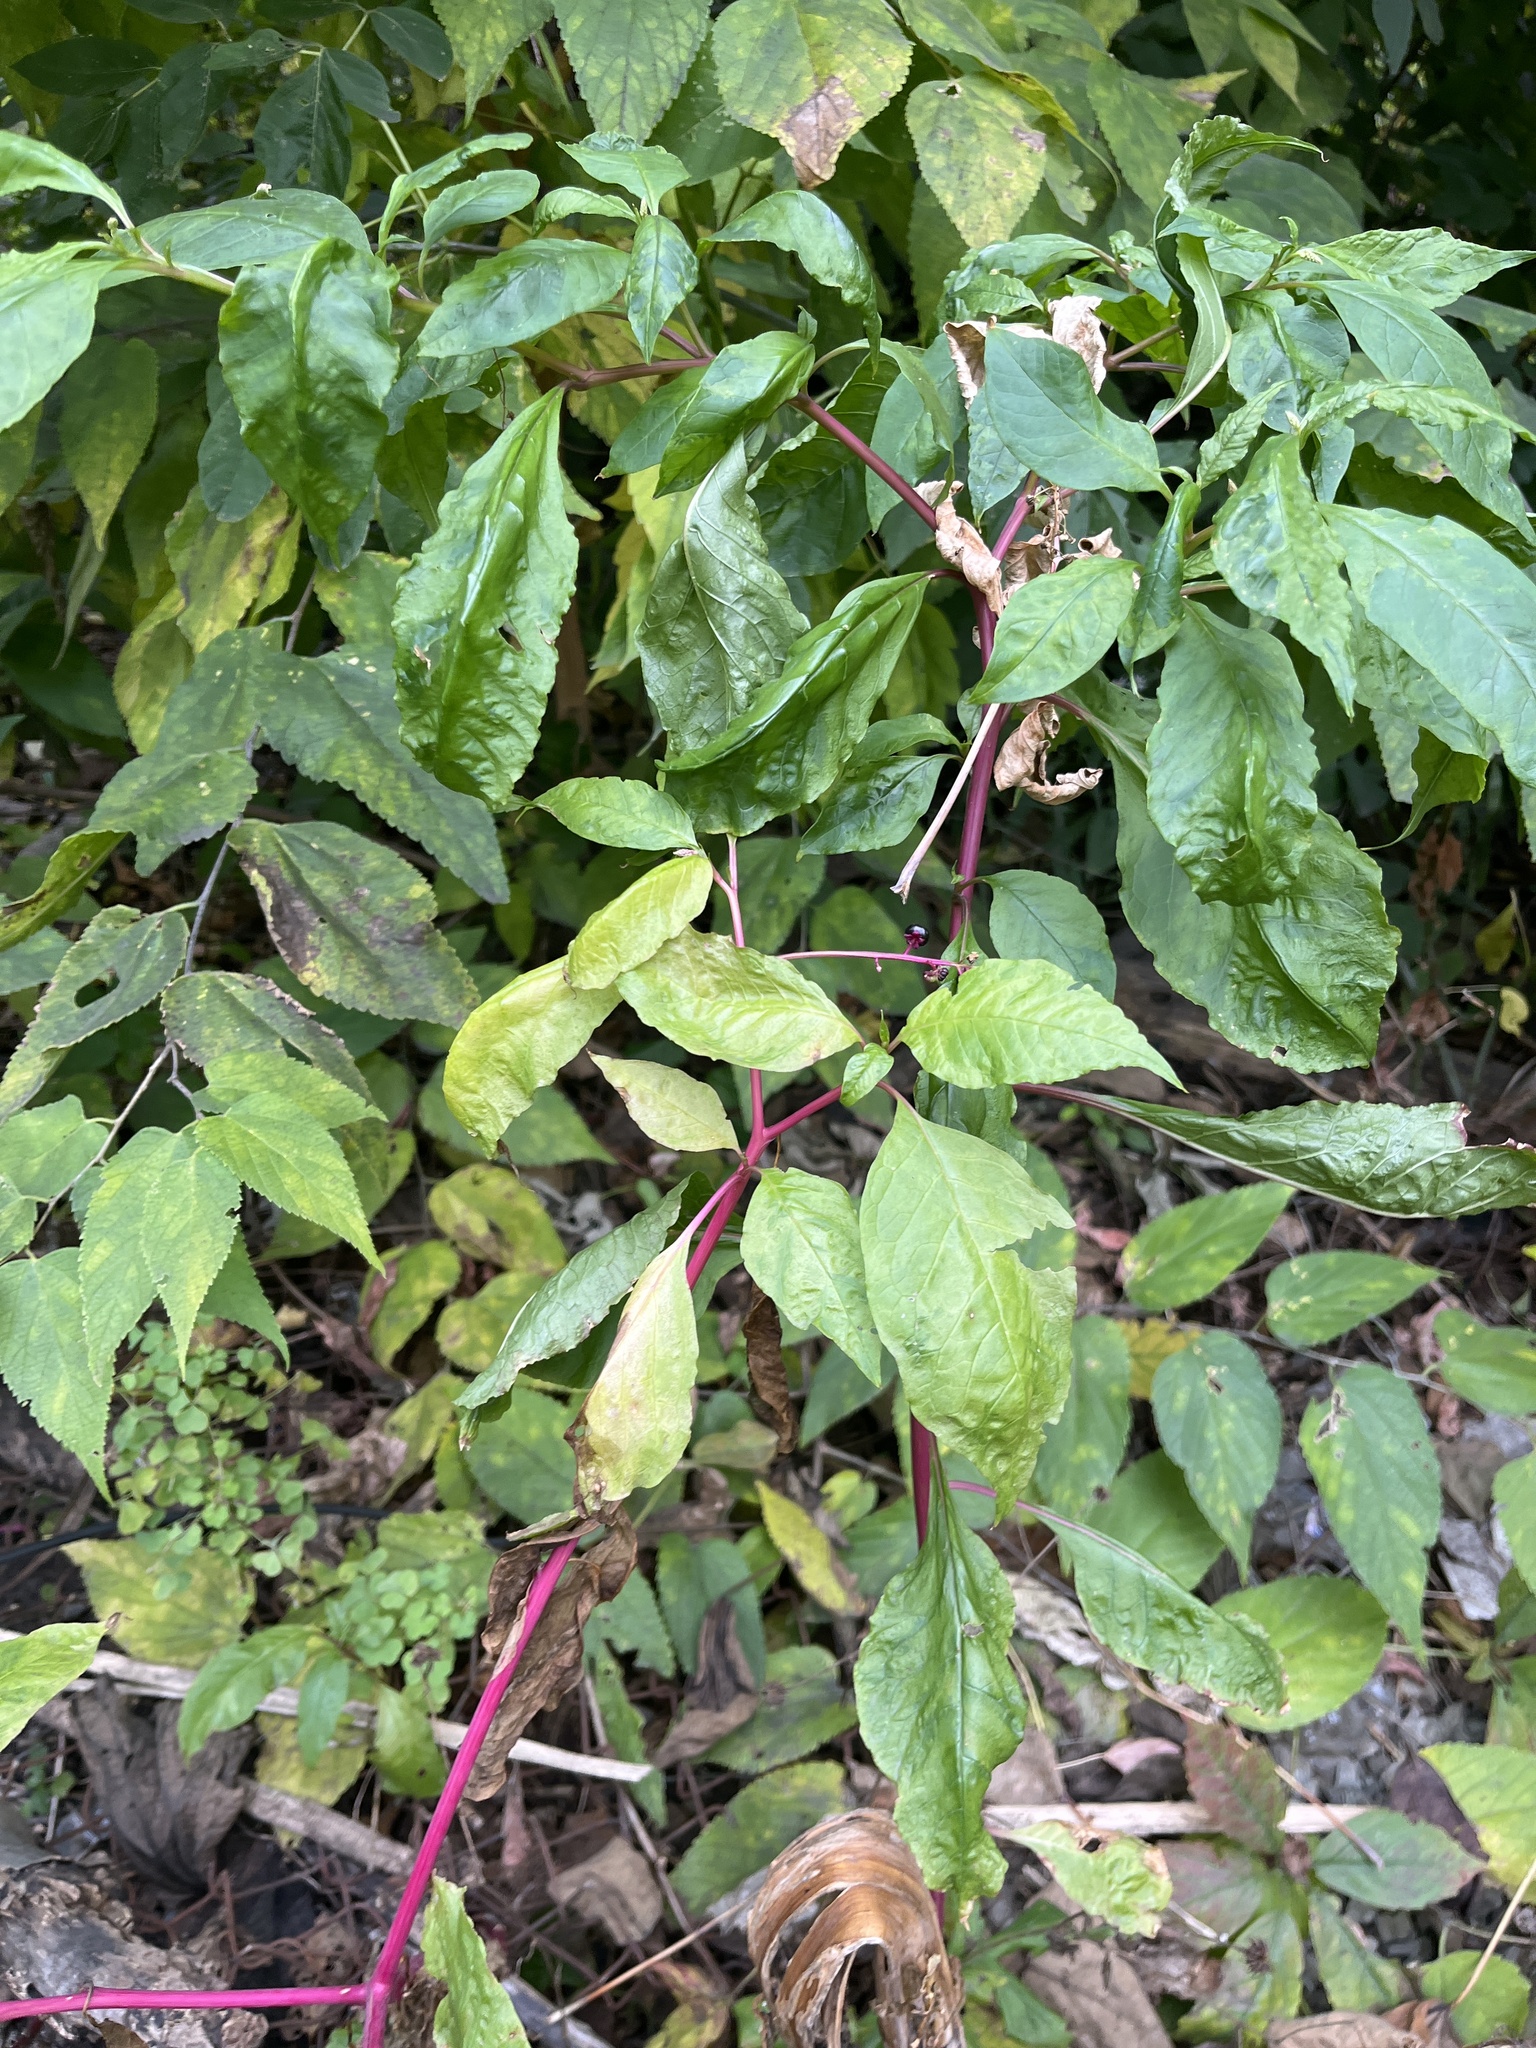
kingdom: Plantae
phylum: Tracheophyta
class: Magnoliopsida
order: Caryophyllales
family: Phytolaccaceae
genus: Phytolacca
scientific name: Phytolacca americana
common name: American pokeweed
